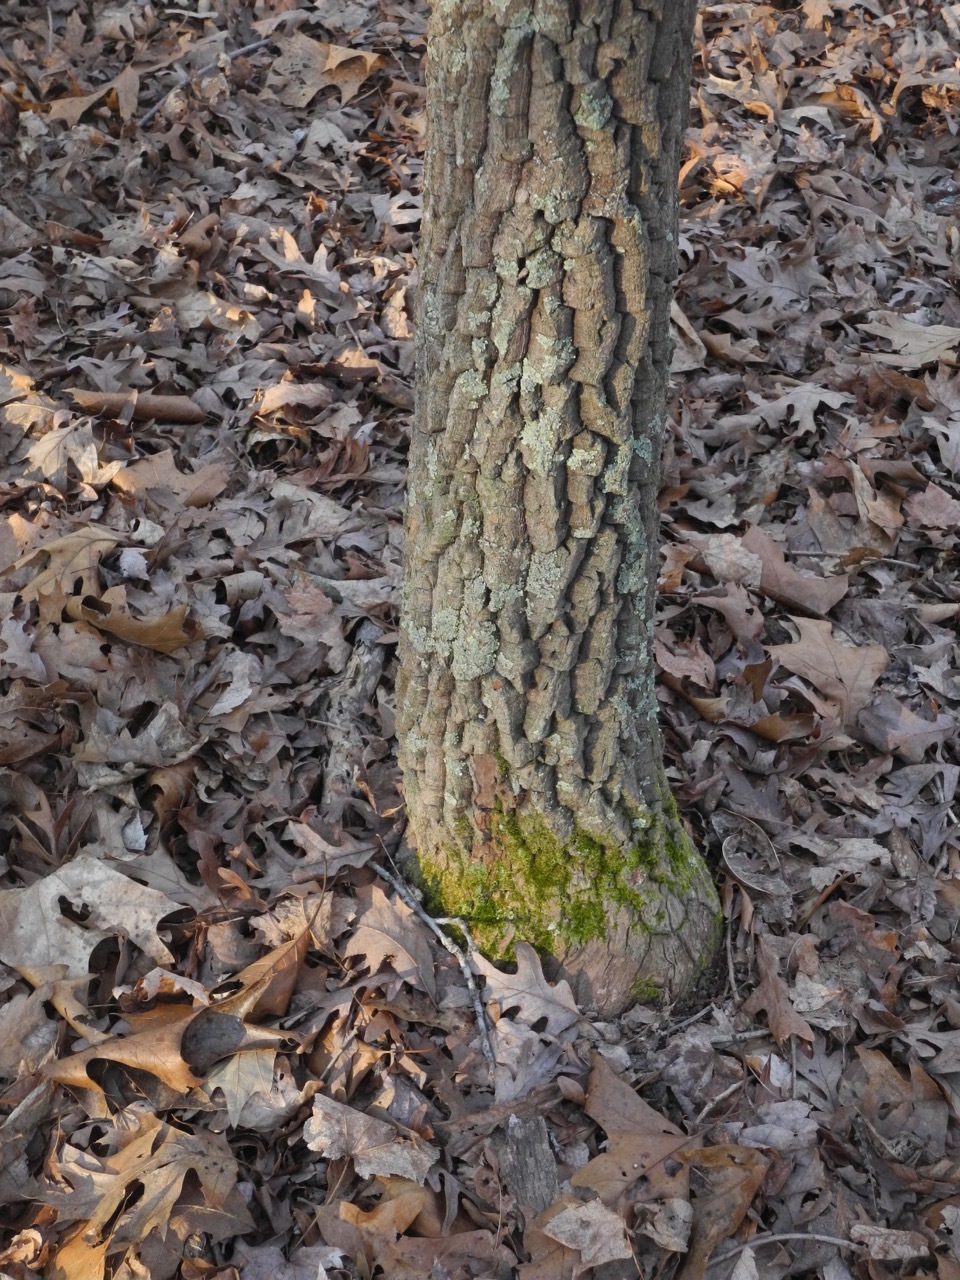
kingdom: Plantae
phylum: Tracheophyta
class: Magnoliopsida
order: Ericales
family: Ericaceae
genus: Oxydendrum
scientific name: Oxydendrum arboreum
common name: Sourwood
